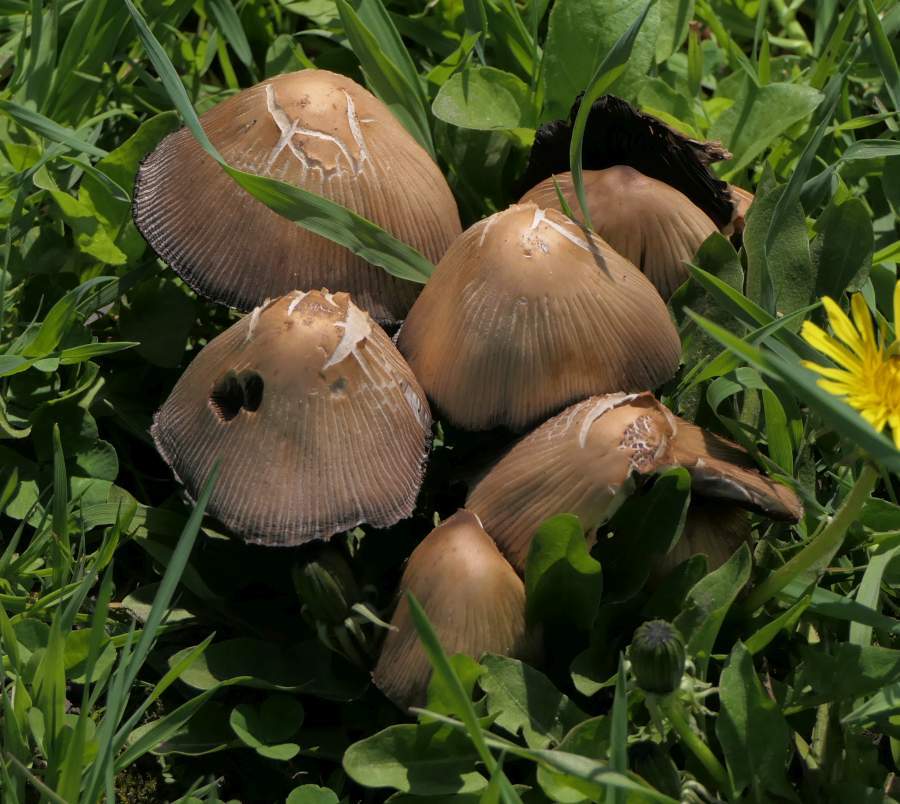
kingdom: Fungi
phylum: Basidiomycota
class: Agaricomycetes
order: Agaricales
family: Psathyrellaceae
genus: Coprinellus
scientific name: Coprinellus micaceus
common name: Glistening ink-cap
